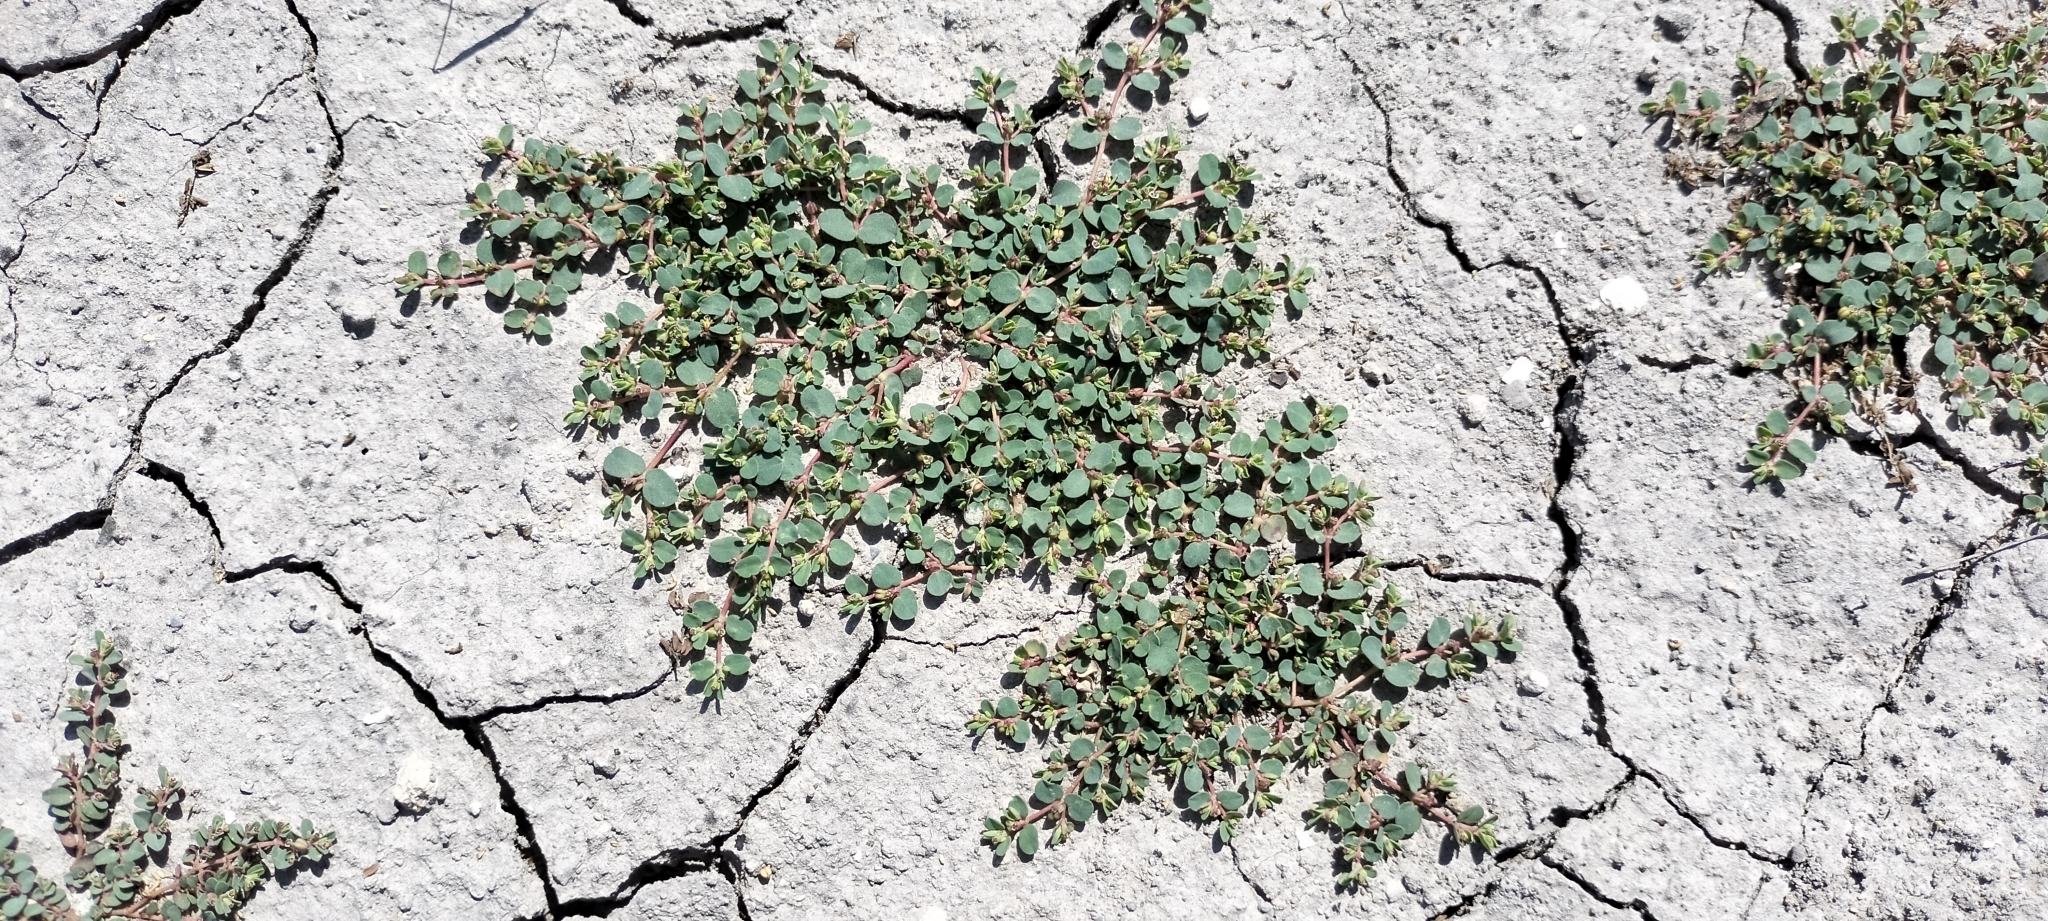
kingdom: Plantae
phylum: Tracheophyta
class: Magnoliopsida
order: Malpighiales
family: Euphorbiaceae
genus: Euphorbia
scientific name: Euphorbia serpens
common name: Matted sandmat
